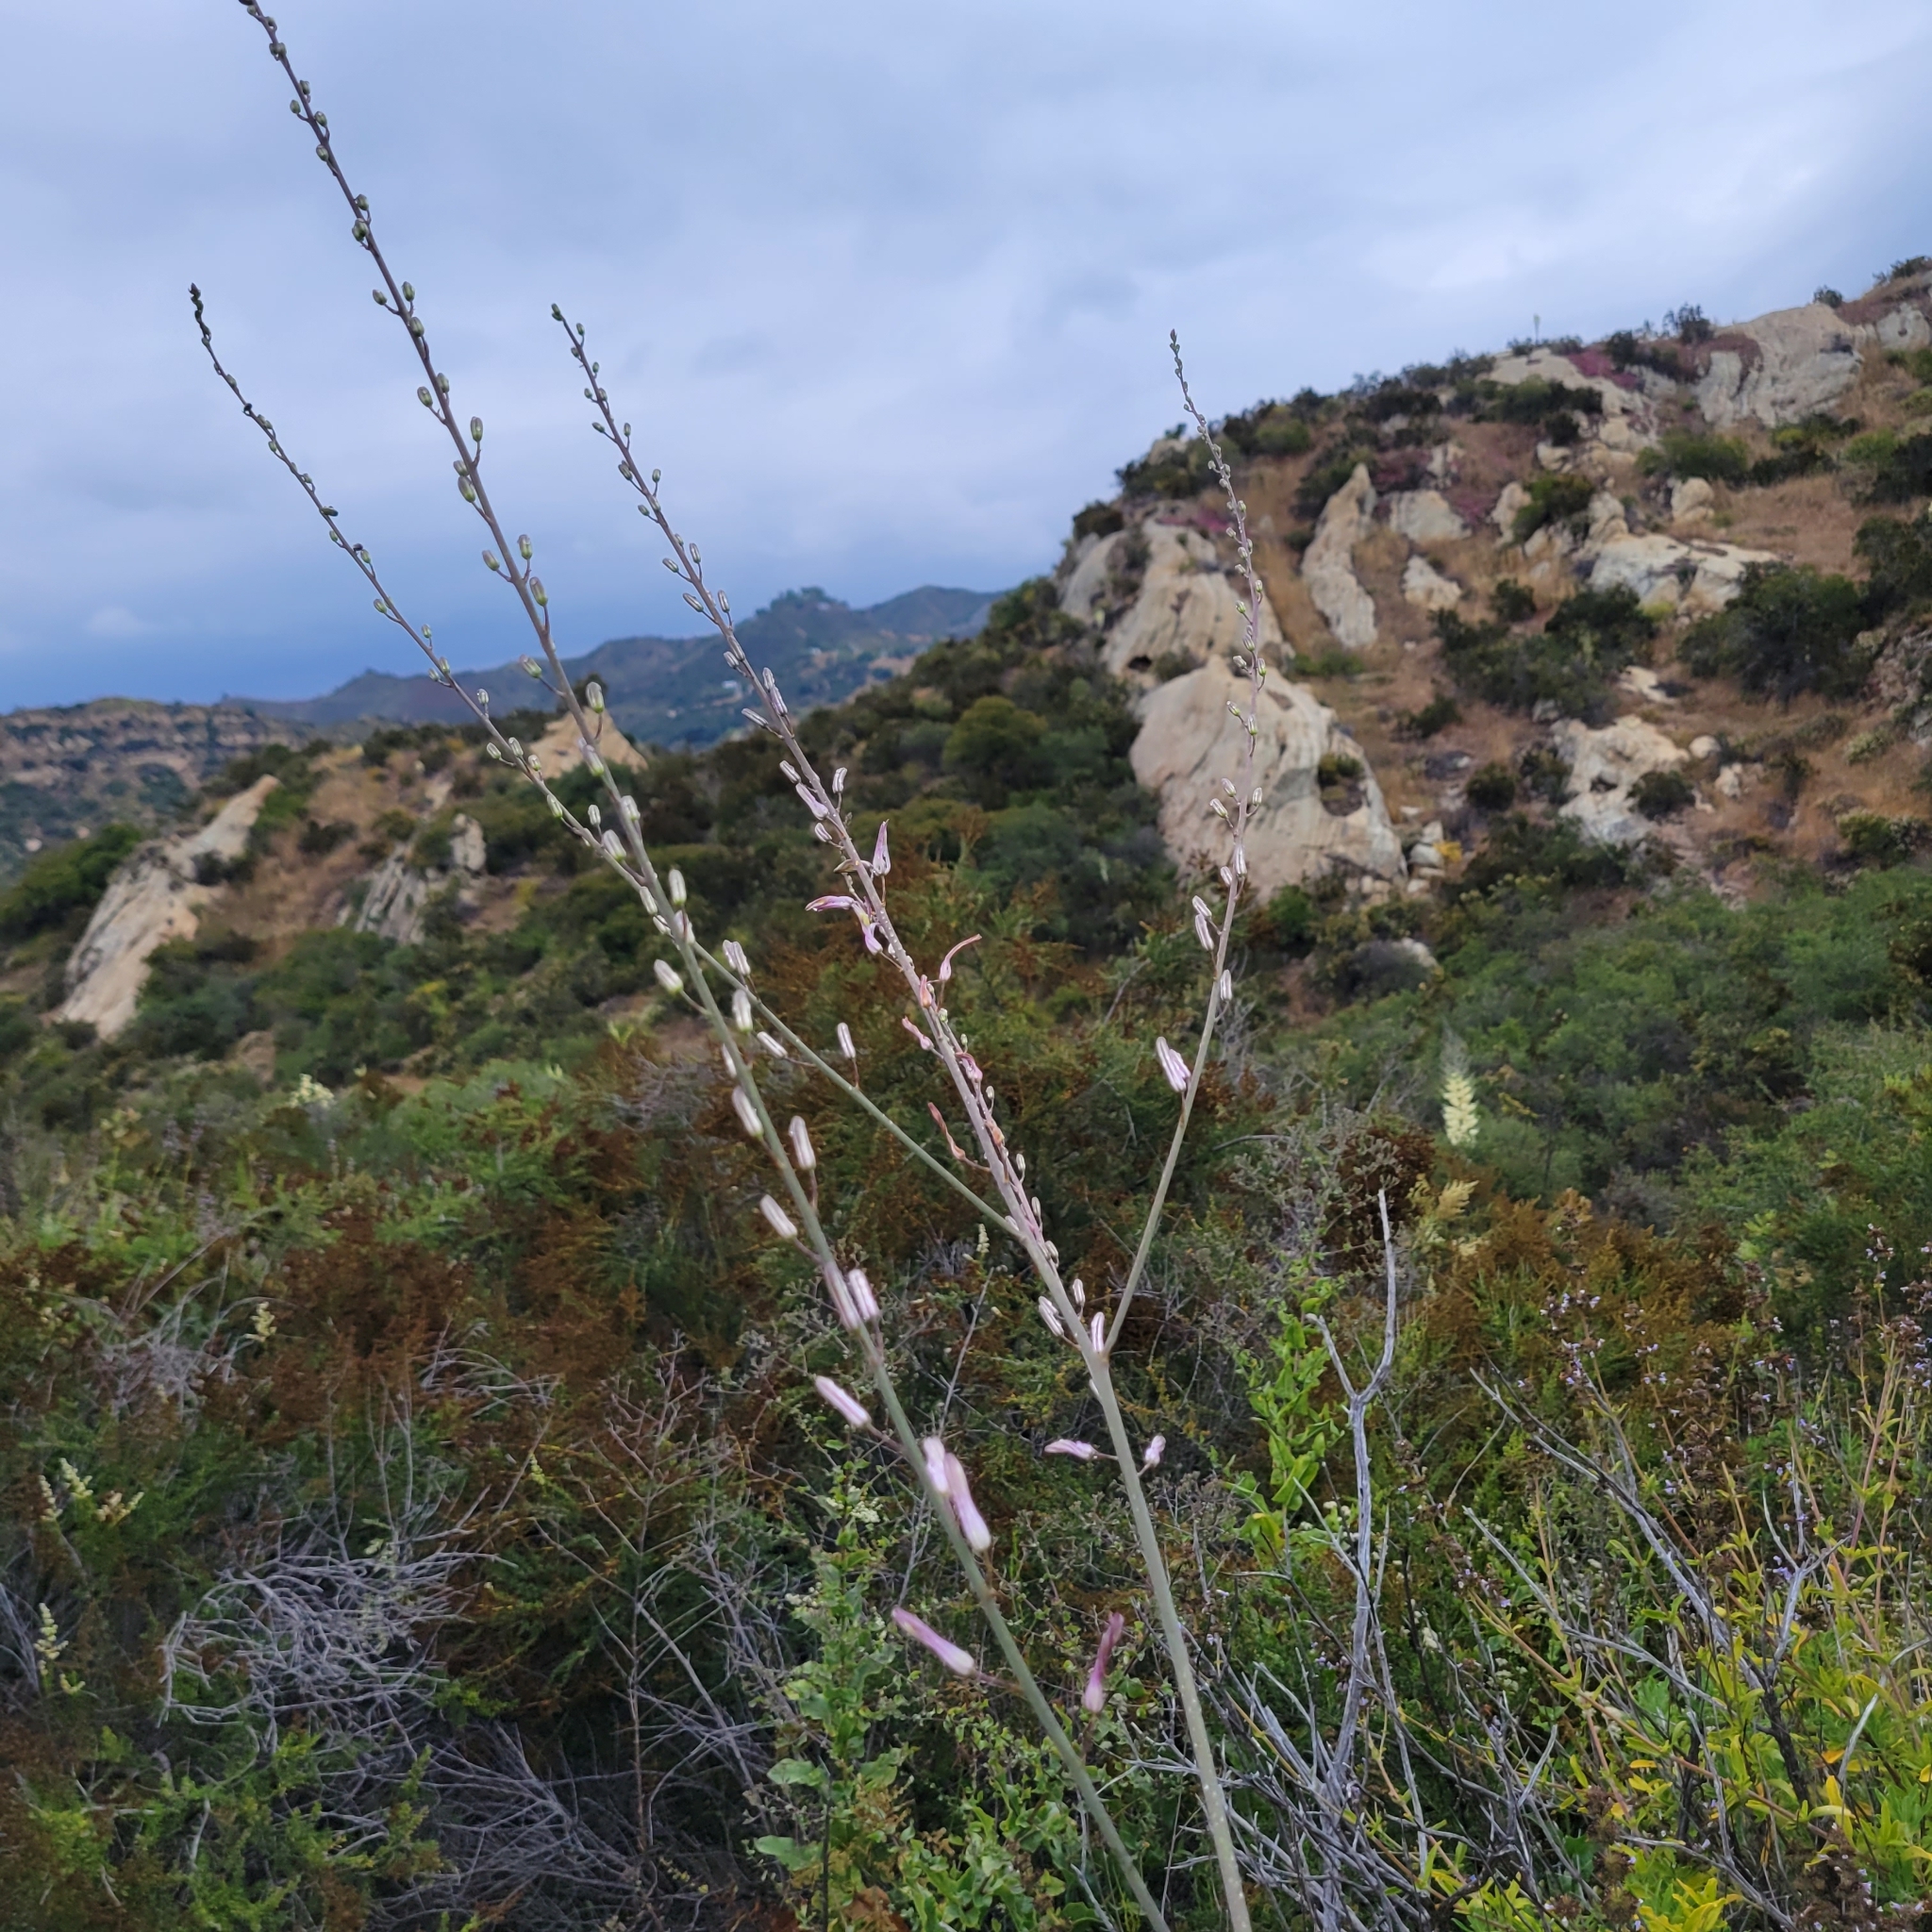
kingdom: Plantae
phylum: Tracheophyta
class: Liliopsida
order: Asparagales
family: Asparagaceae
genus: Chlorogalum
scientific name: Chlorogalum pomeridianum
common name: Amole
